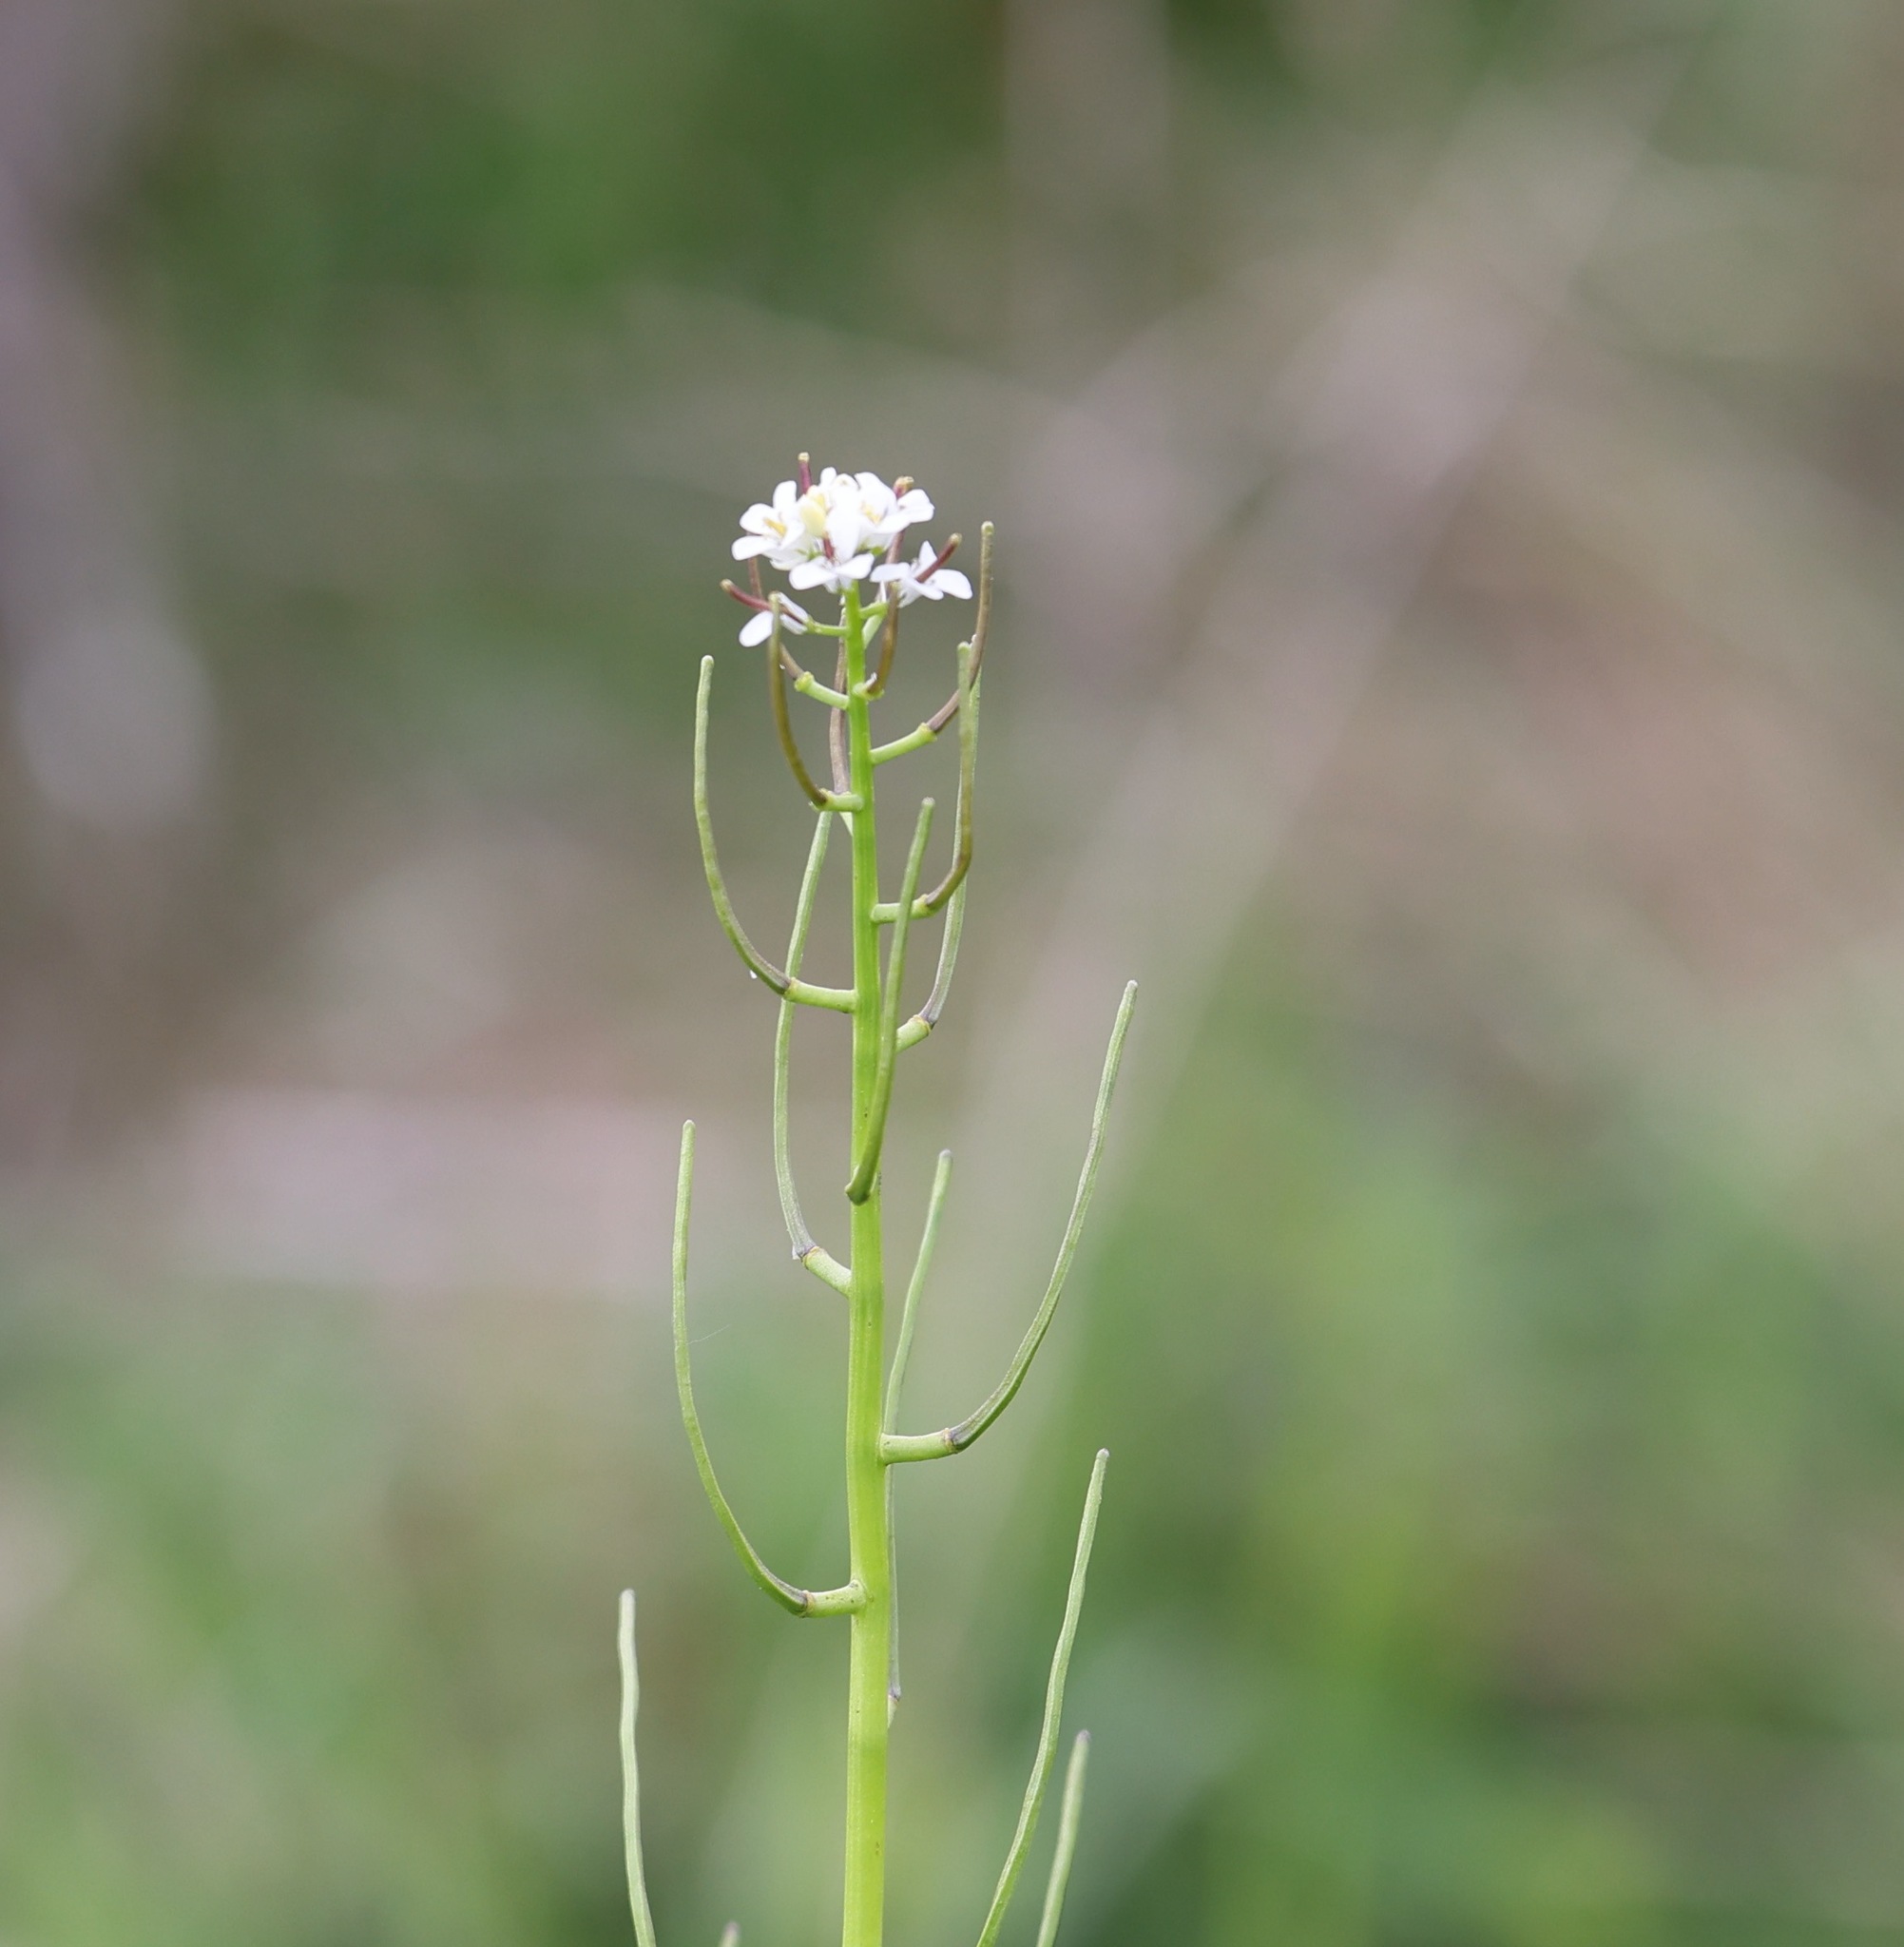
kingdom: Plantae
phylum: Tracheophyta
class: Magnoliopsida
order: Brassicales
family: Brassicaceae
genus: Alliaria
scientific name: Alliaria petiolata
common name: Garlic mustard
